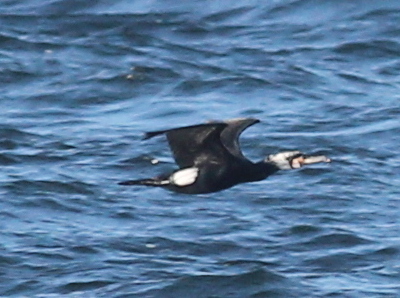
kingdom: Animalia
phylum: Chordata
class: Aves
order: Suliformes
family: Phalacrocoracidae
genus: Phalacrocorax
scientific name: Phalacrocorax carbo
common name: Great cormorant
